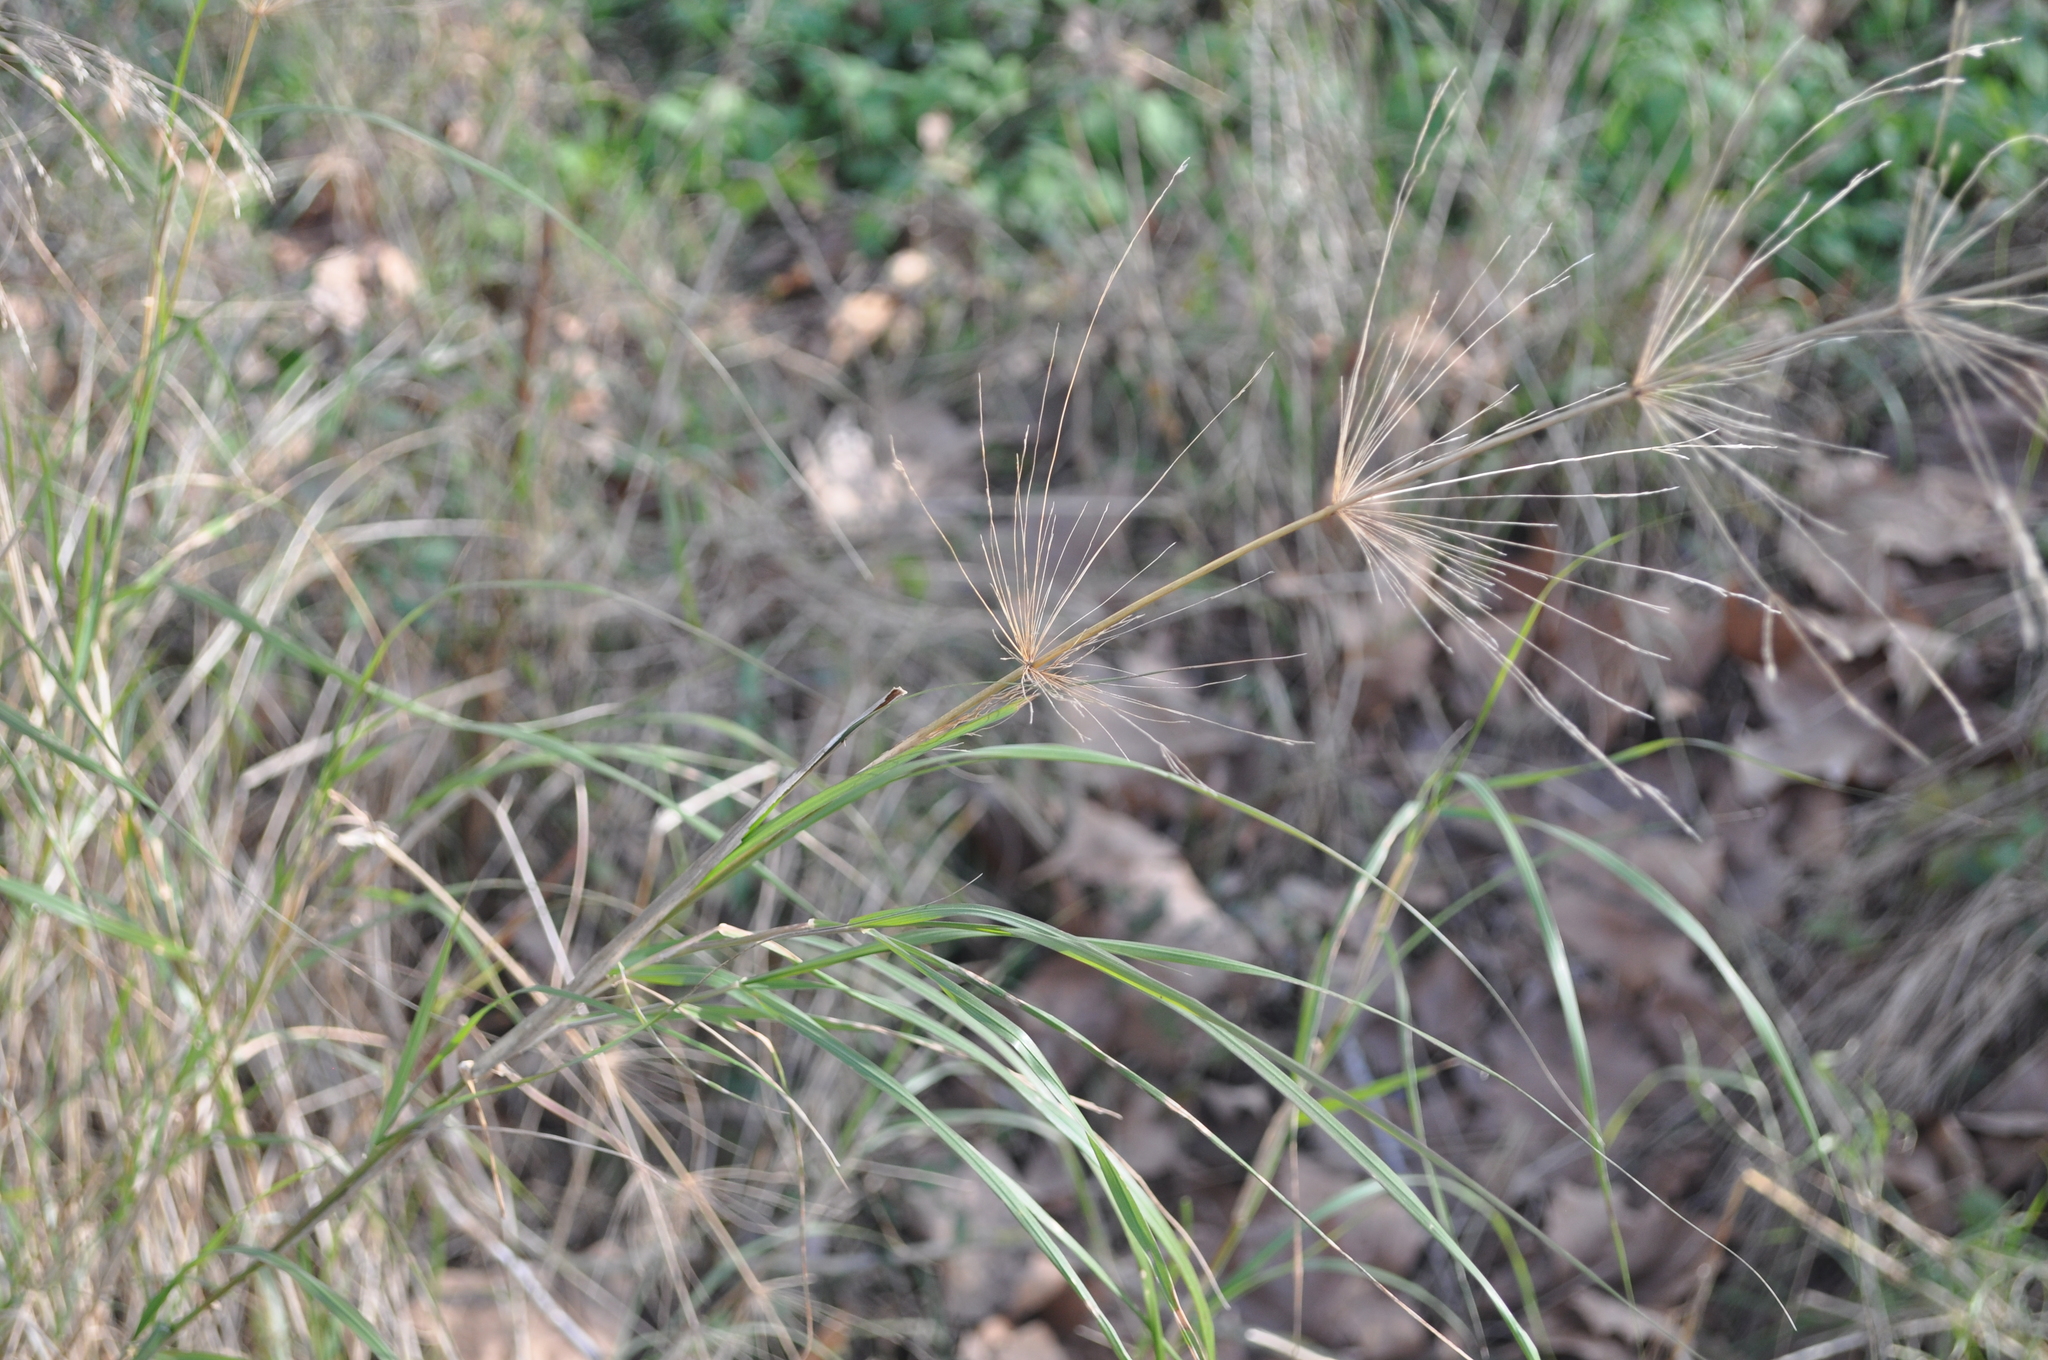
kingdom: Plantae
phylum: Tracheophyta
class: Liliopsida
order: Poales
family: Poaceae
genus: Oloptum
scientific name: Oloptum thomasii
